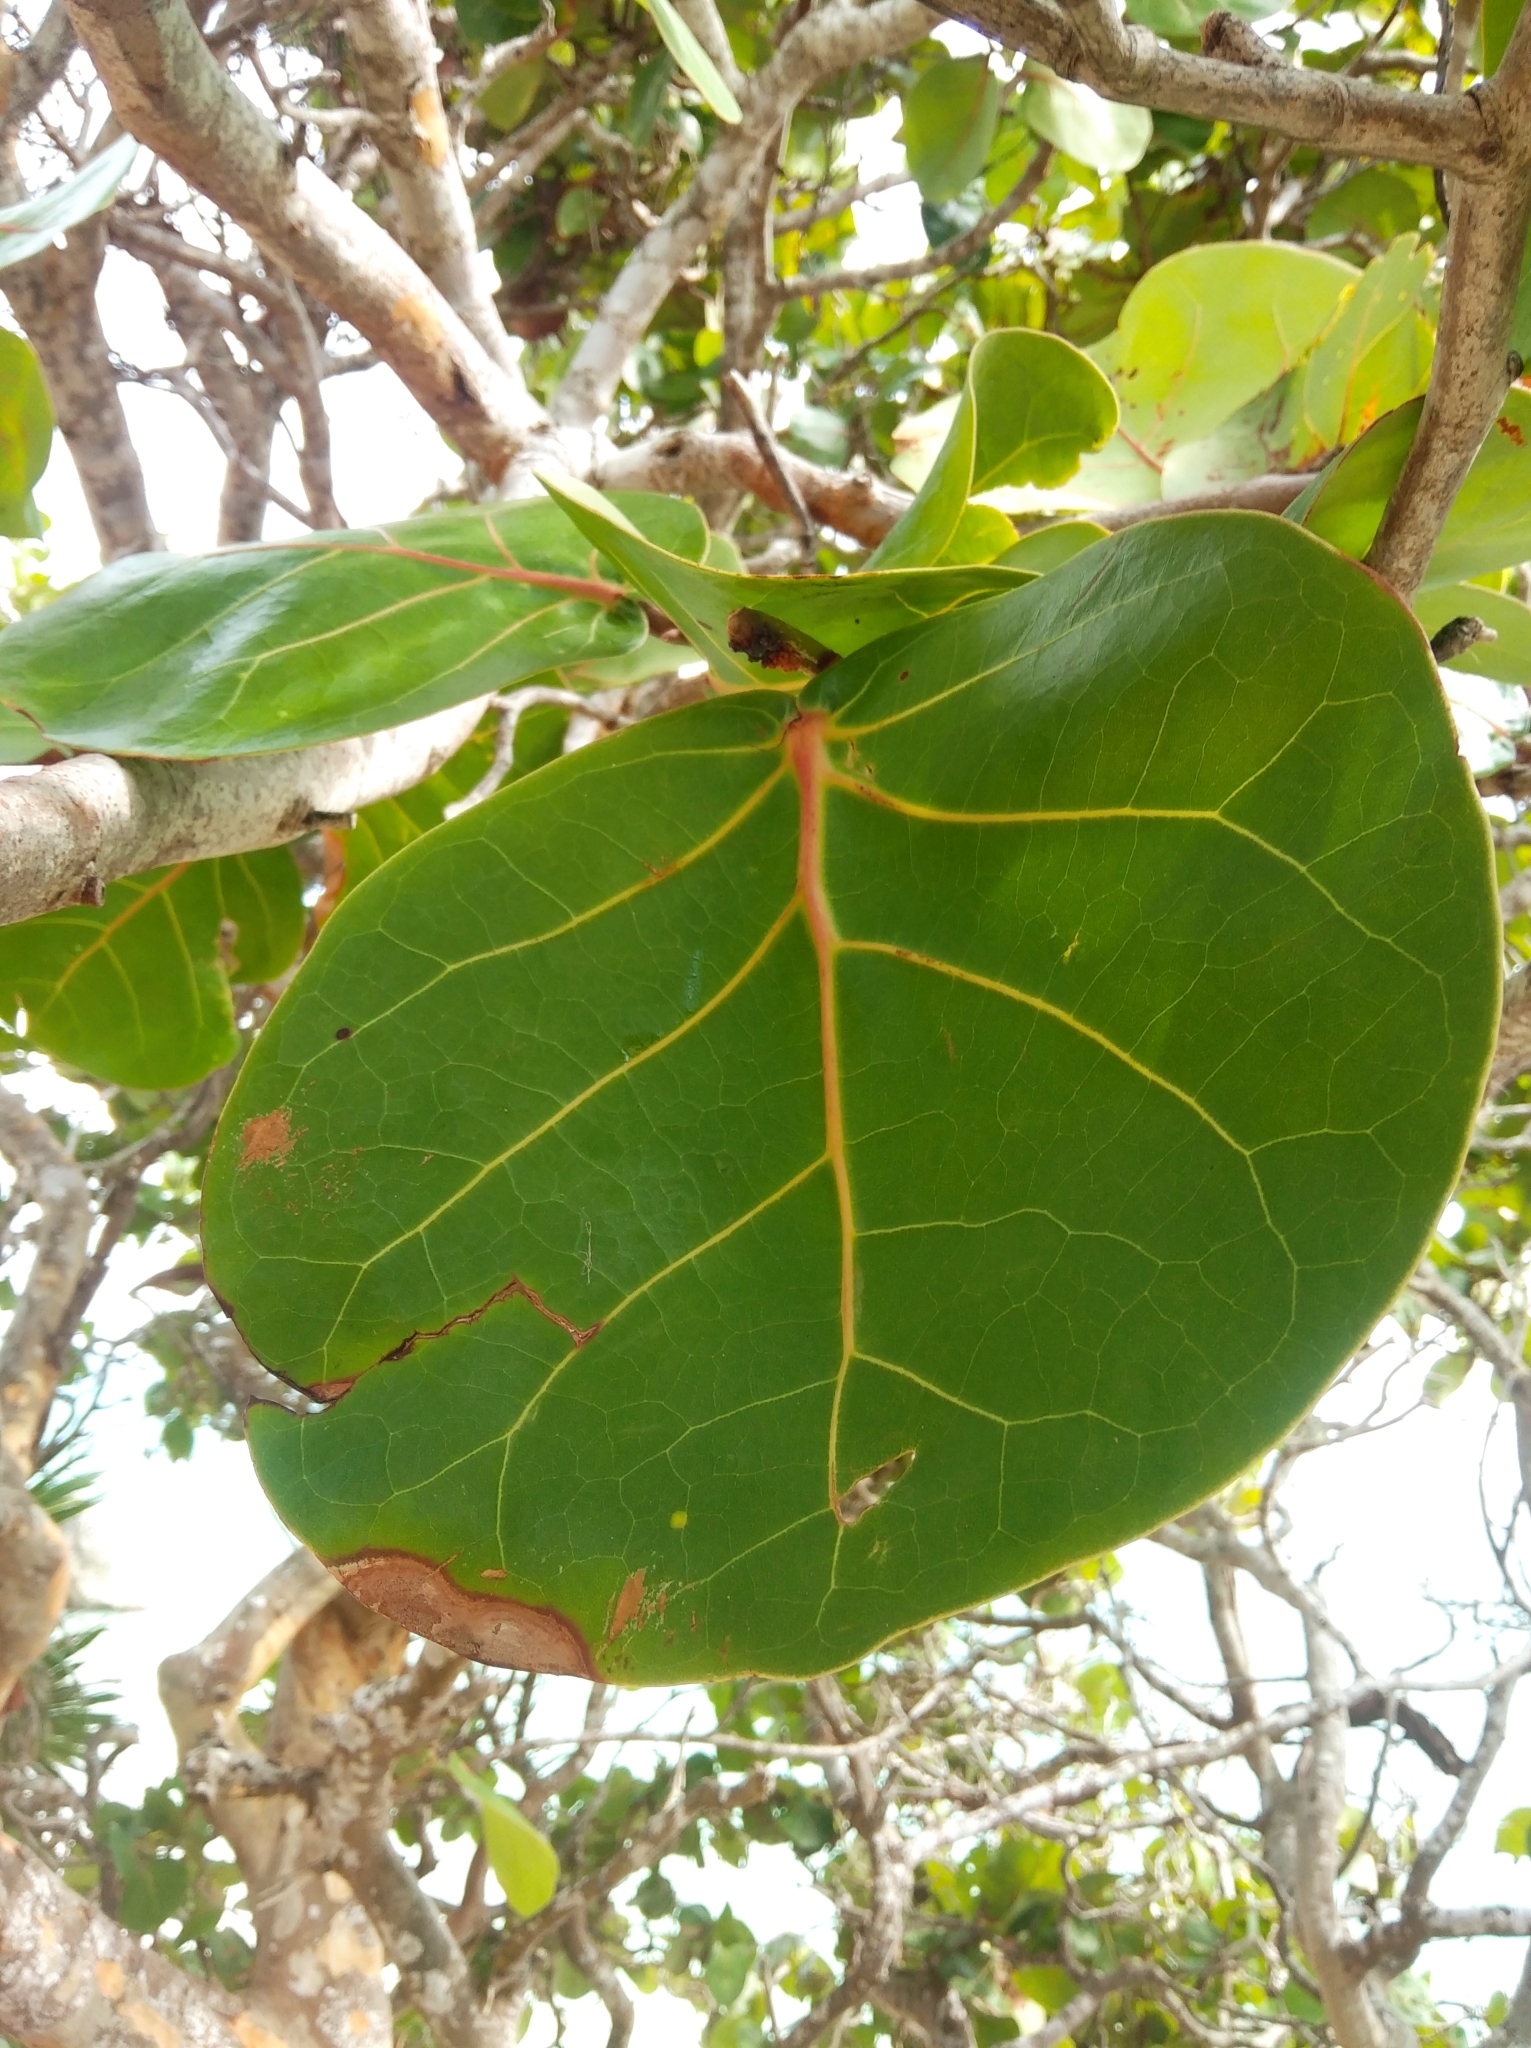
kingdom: Plantae
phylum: Tracheophyta
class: Magnoliopsida
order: Caryophyllales
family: Polygonaceae
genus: Coccoloba
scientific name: Coccoloba uvifera
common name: Seagrape
